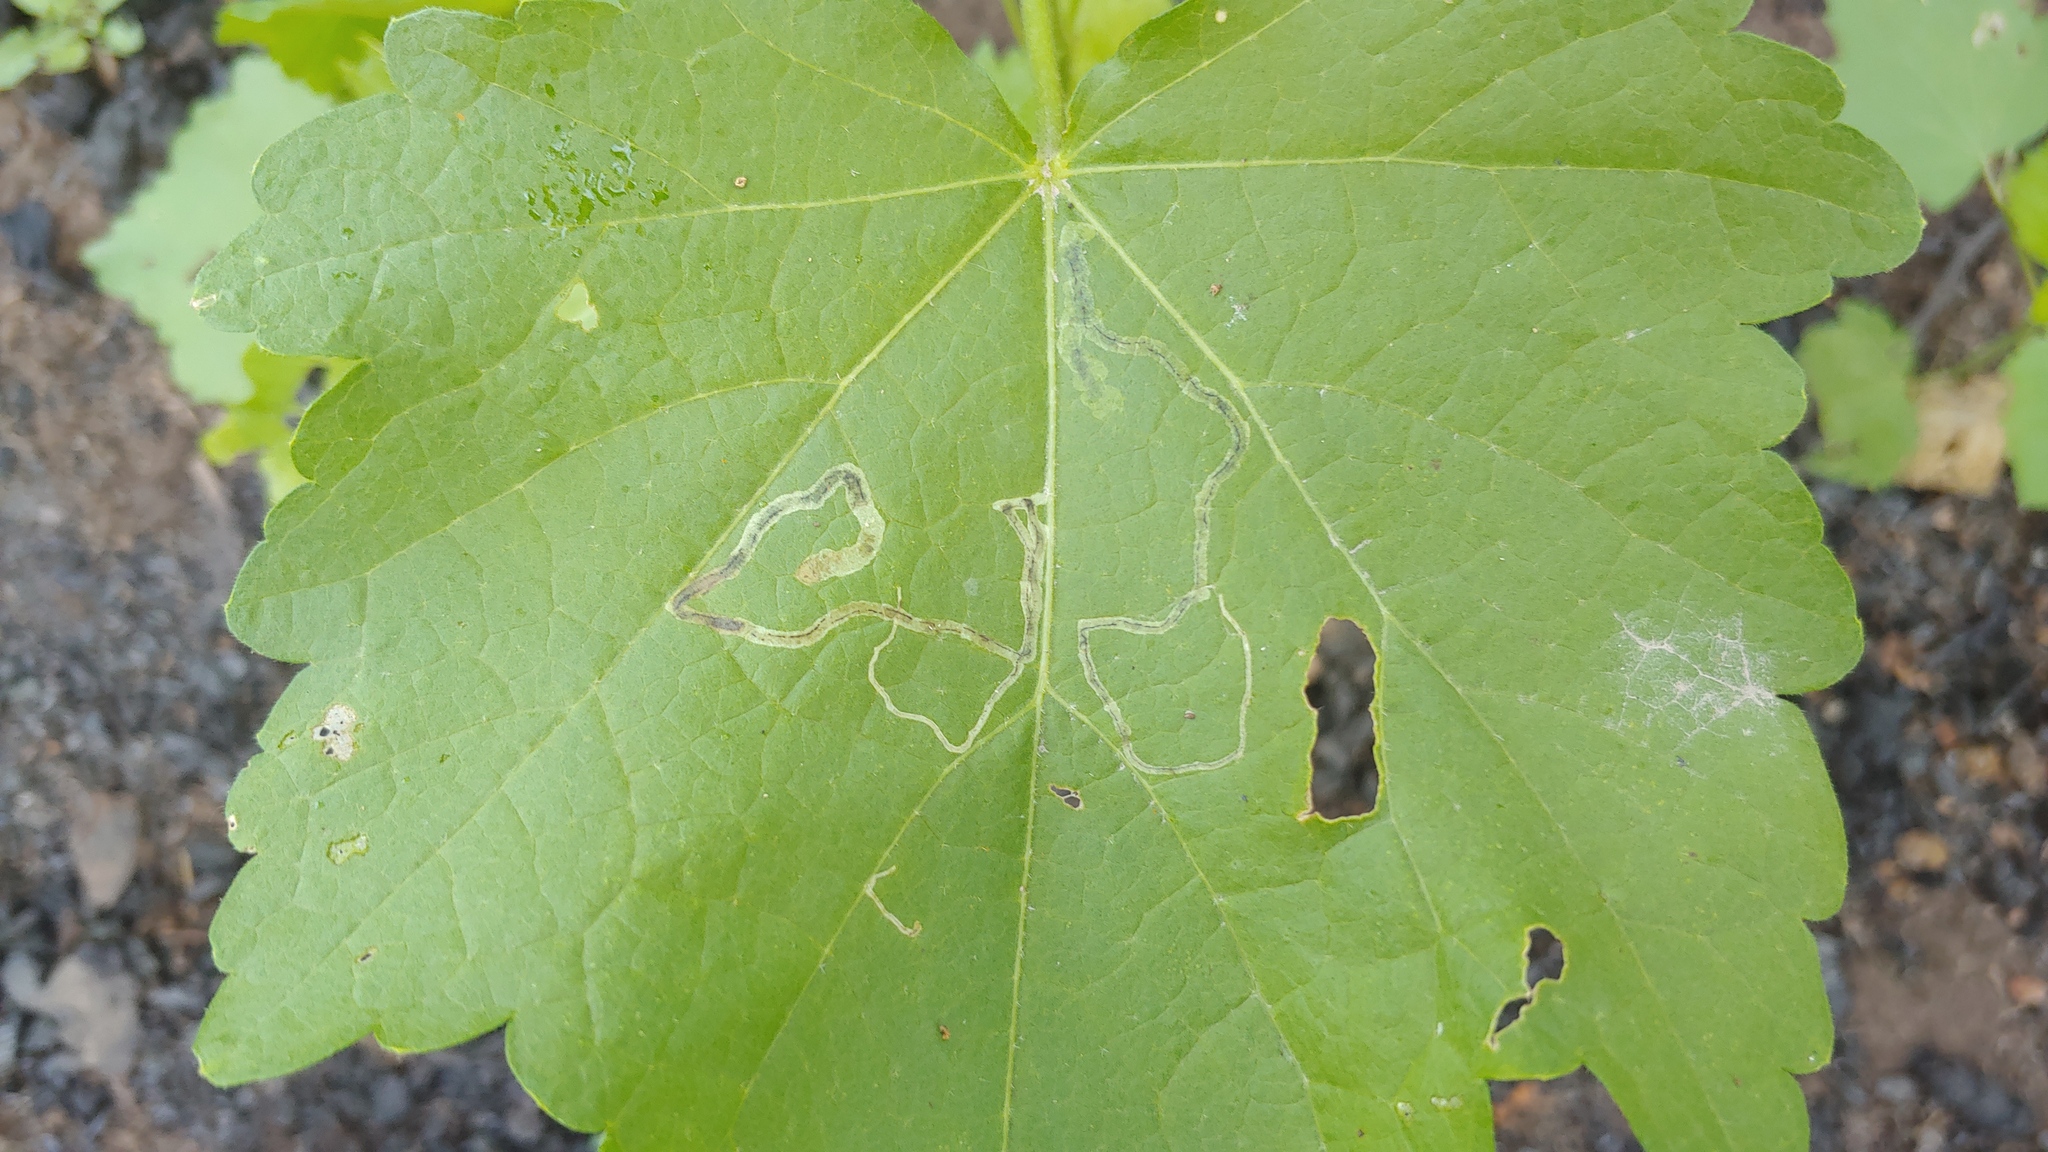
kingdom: Animalia
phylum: Arthropoda
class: Insecta
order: Diptera
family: Agromyzidae
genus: Calycomyza
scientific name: Calycomyza malvae
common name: Mallow leaf miner
